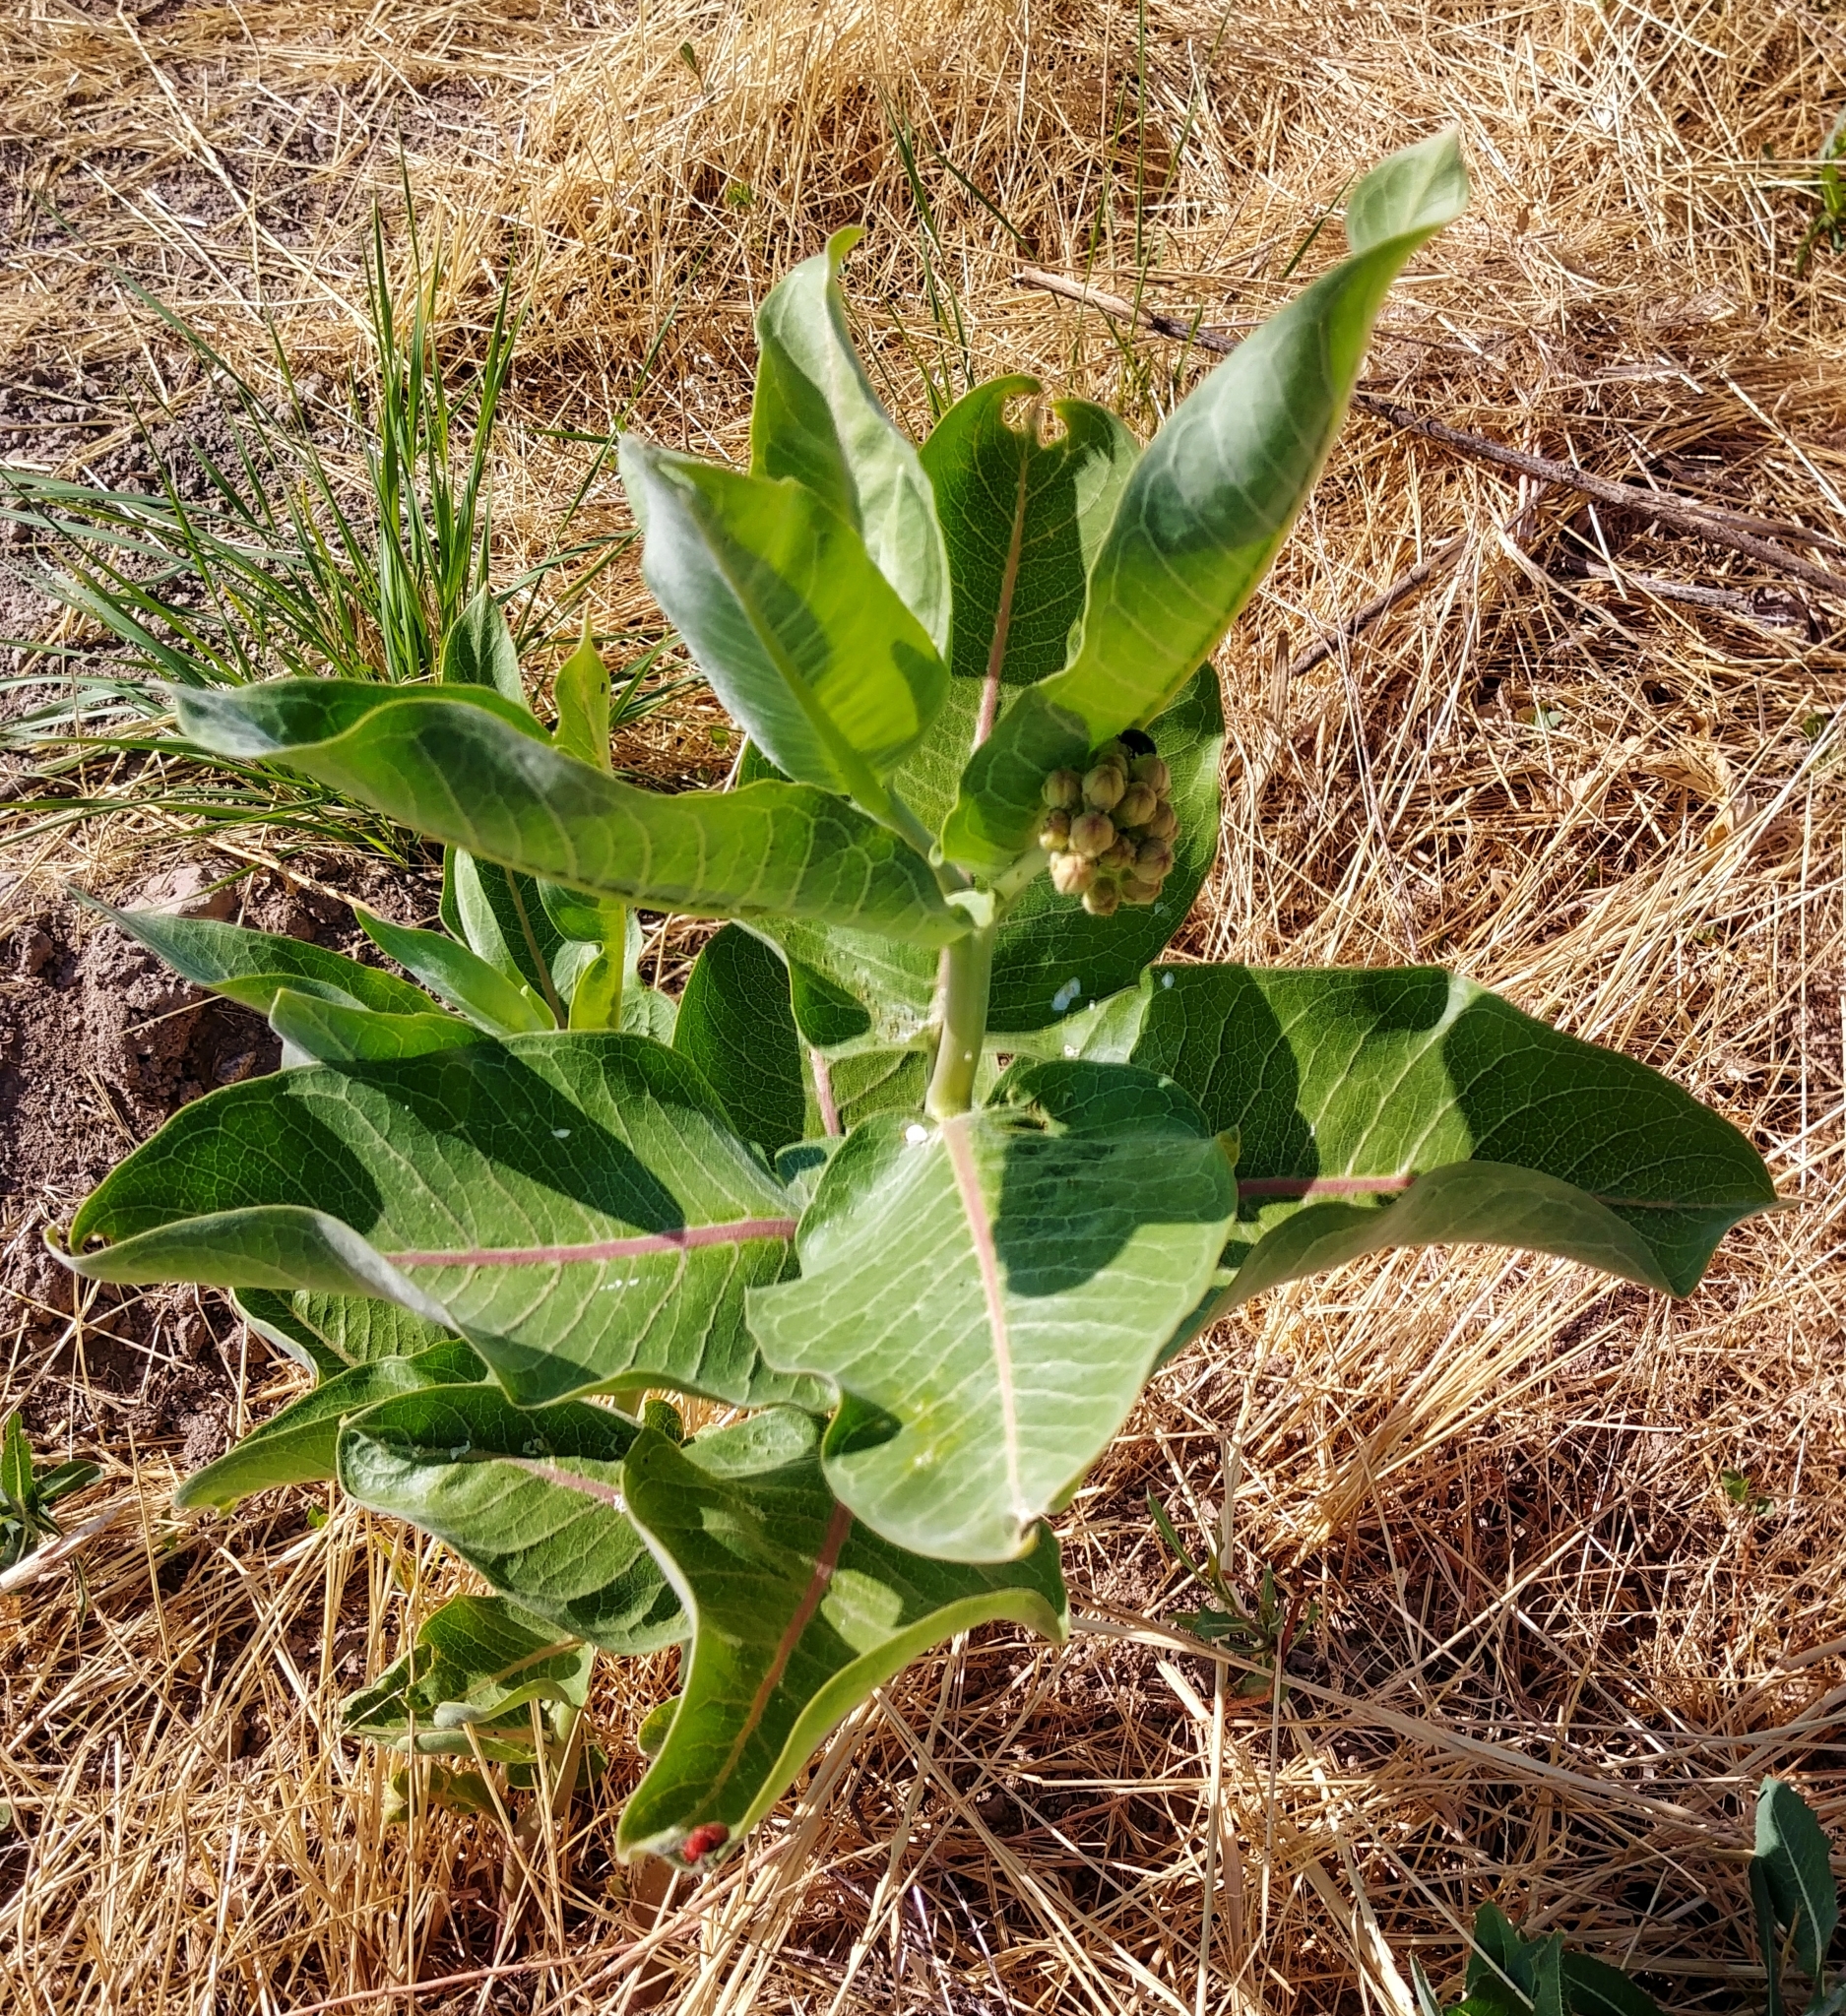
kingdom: Plantae
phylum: Tracheophyta
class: Magnoliopsida
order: Gentianales
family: Apocynaceae
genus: Asclepias
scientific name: Asclepias speciosa
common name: Showy milkweed
